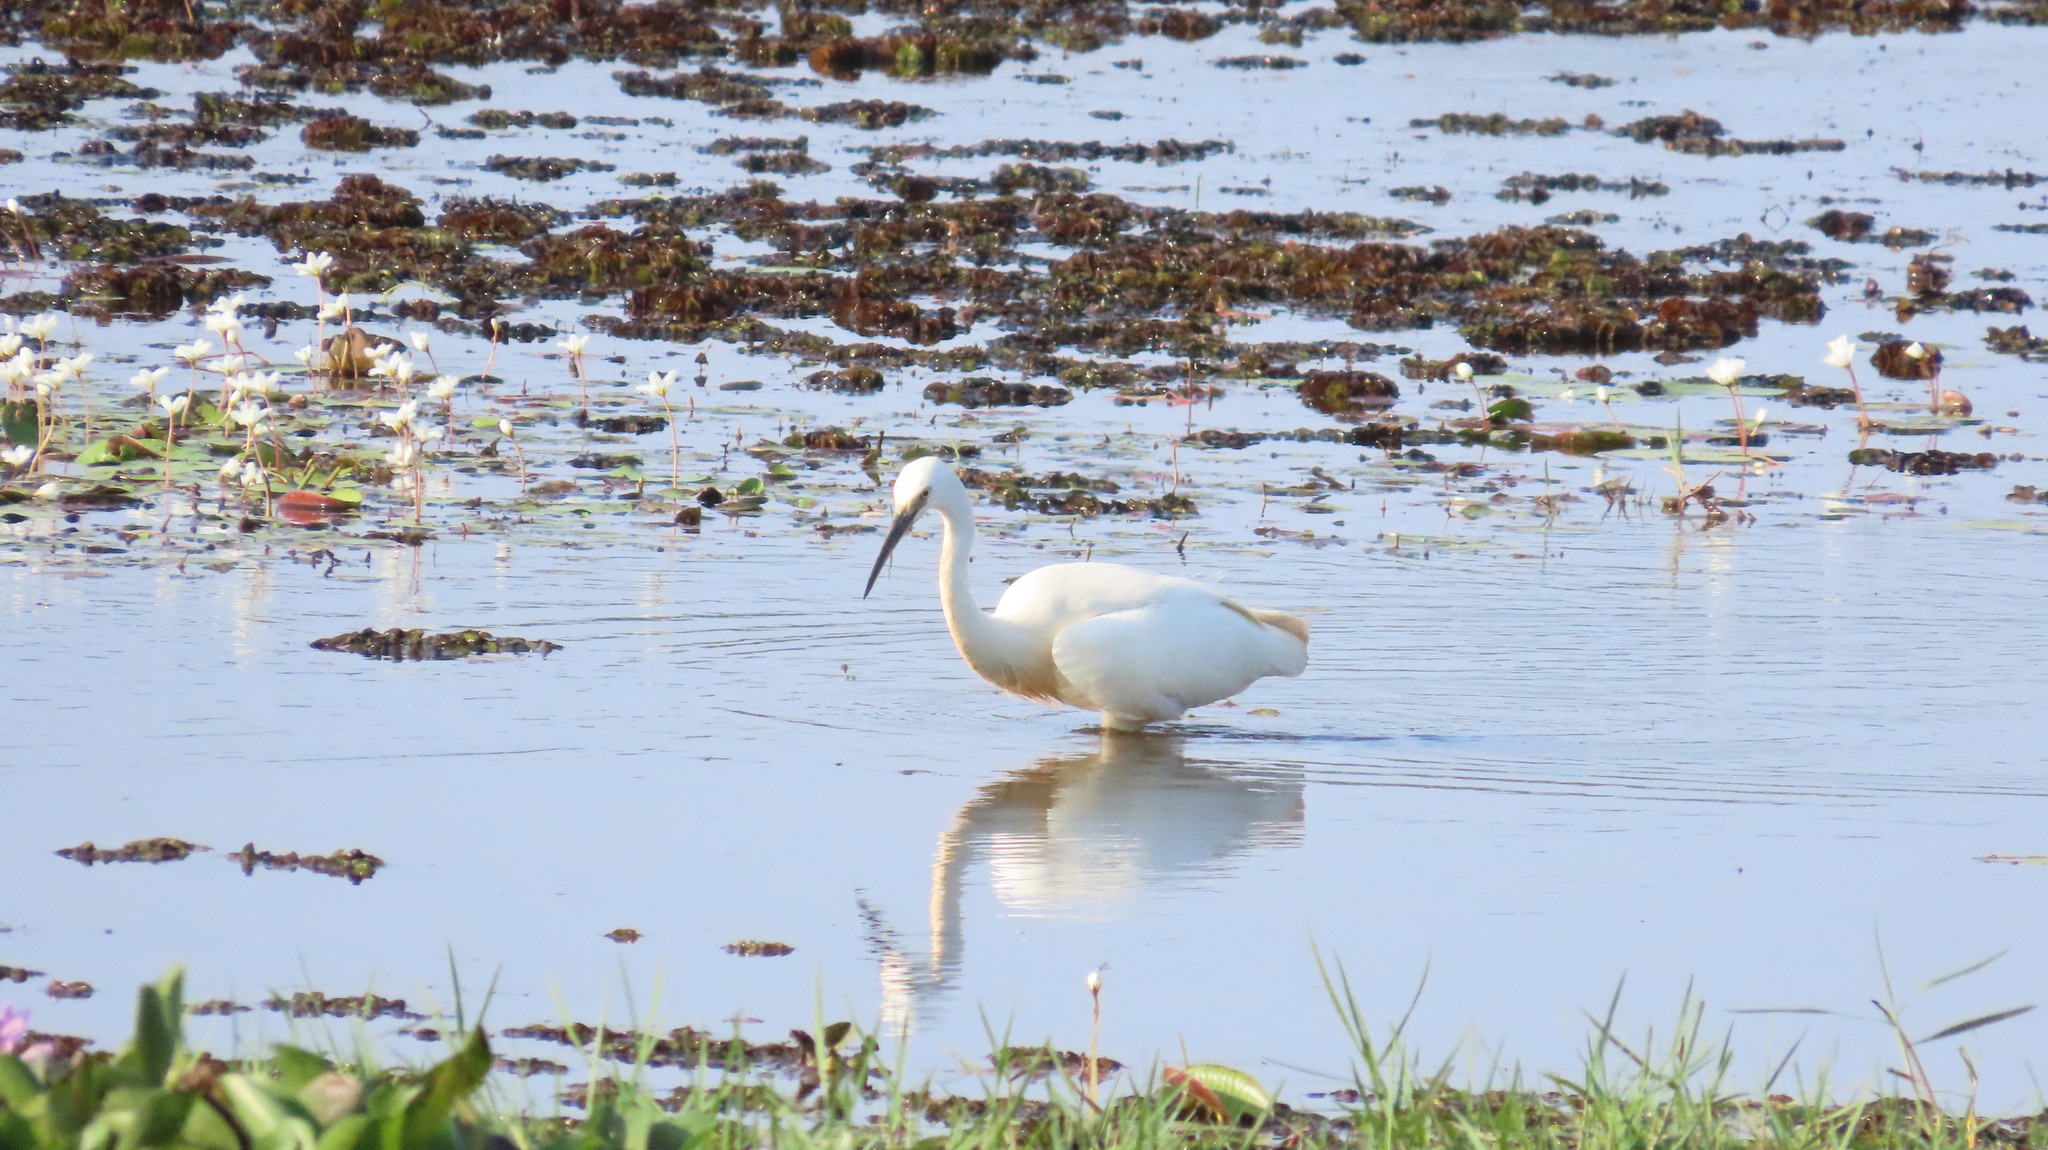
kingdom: Animalia
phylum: Chordata
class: Aves
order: Pelecaniformes
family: Ardeidae
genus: Egretta
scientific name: Egretta garzetta
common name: Little egret
